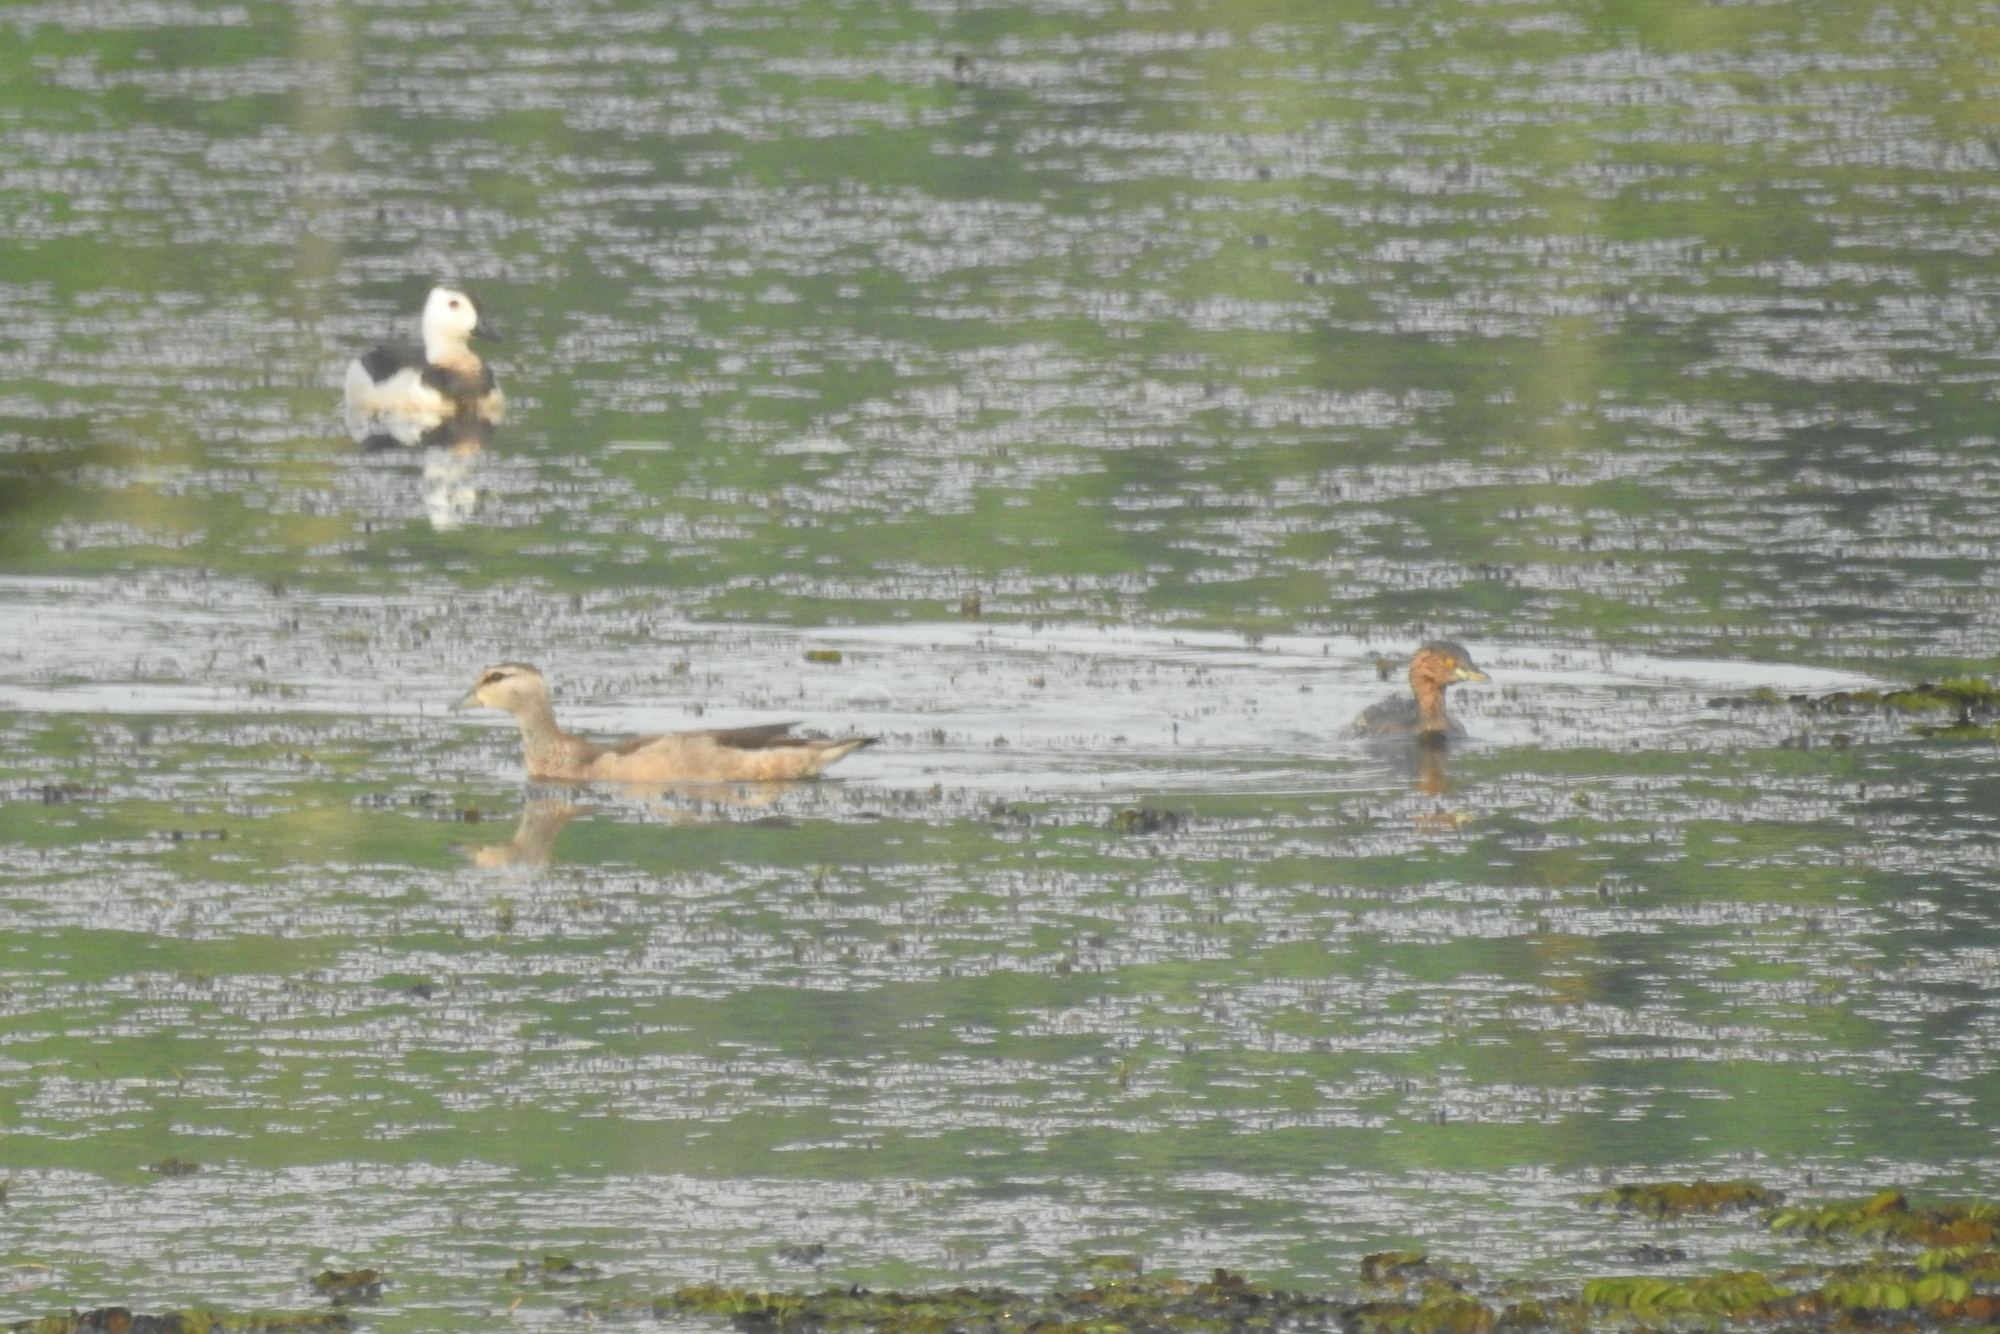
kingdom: Animalia
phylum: Chordata
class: Aves
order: Anseriformes
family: Anatidae
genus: Nettapus
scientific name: Nettapus coromandelianus
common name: Cotton pygmy-goose
